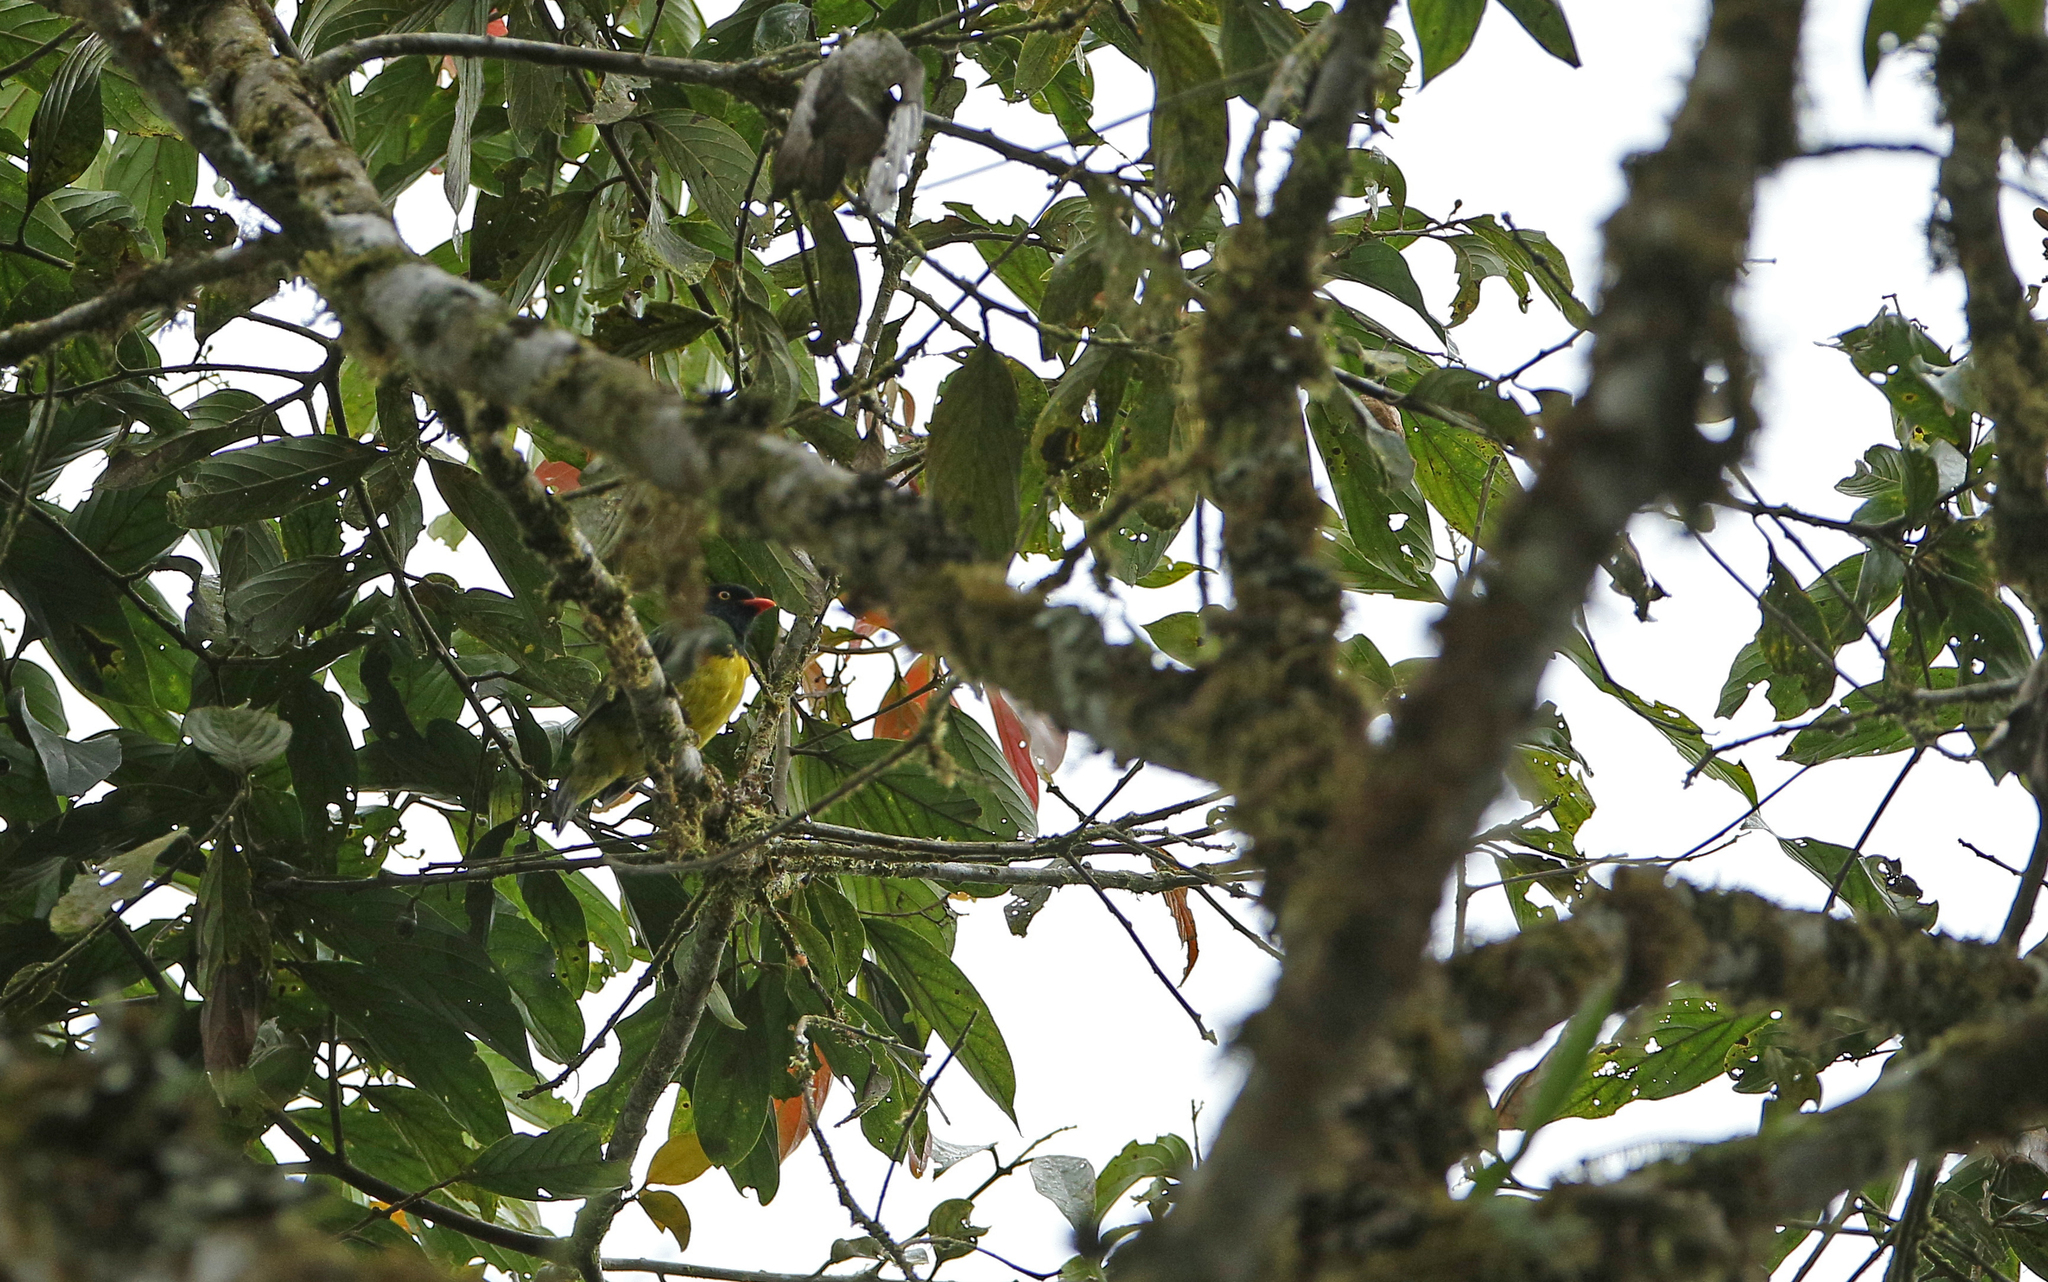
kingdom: Animalia
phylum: Chordata
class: Aves
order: Passeriformes
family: Cotingidae
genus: Pipreola
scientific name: Pipreola lubomirskii
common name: Black-chested fruiteater
